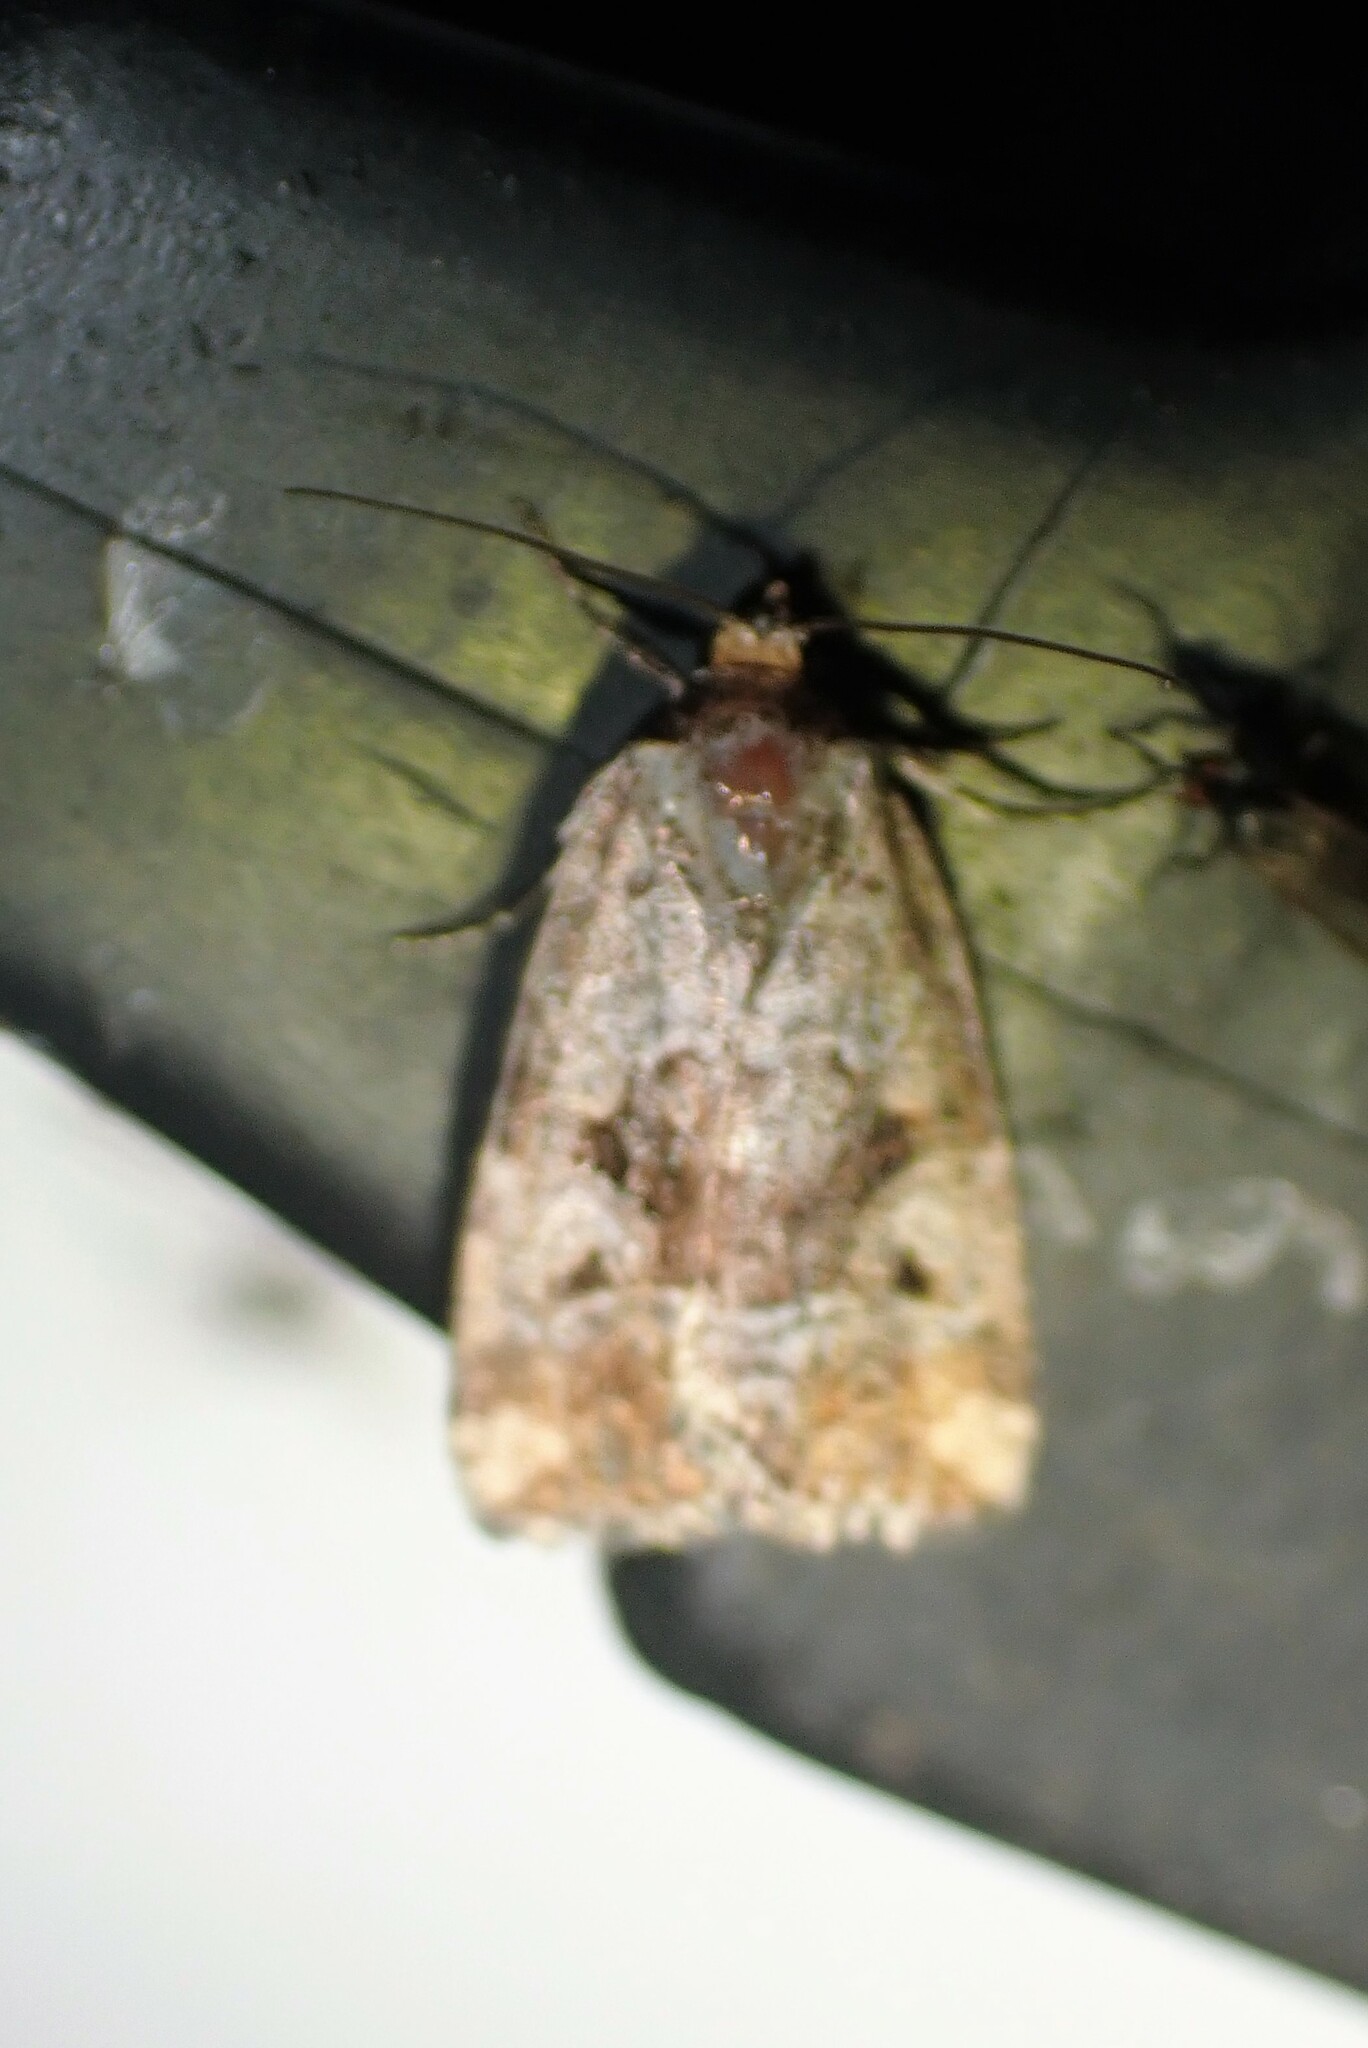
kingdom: Animalia
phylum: Arthropoda
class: Insecta
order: Lepidoptera
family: Noctuidae
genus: Elaphria
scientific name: Elaphria alapallida
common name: Pale-winged midget
